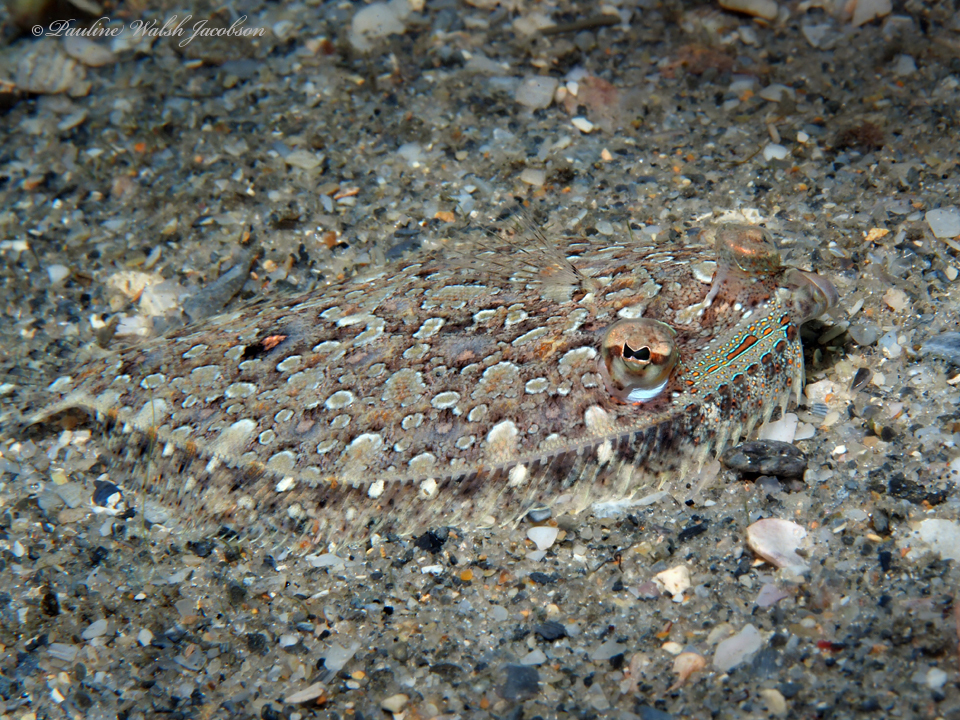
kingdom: Animalia
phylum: Chordata
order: Pleuronectiformes
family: Bothidae
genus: Bothus
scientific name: Bothus ocellatus
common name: Eyed flounder
